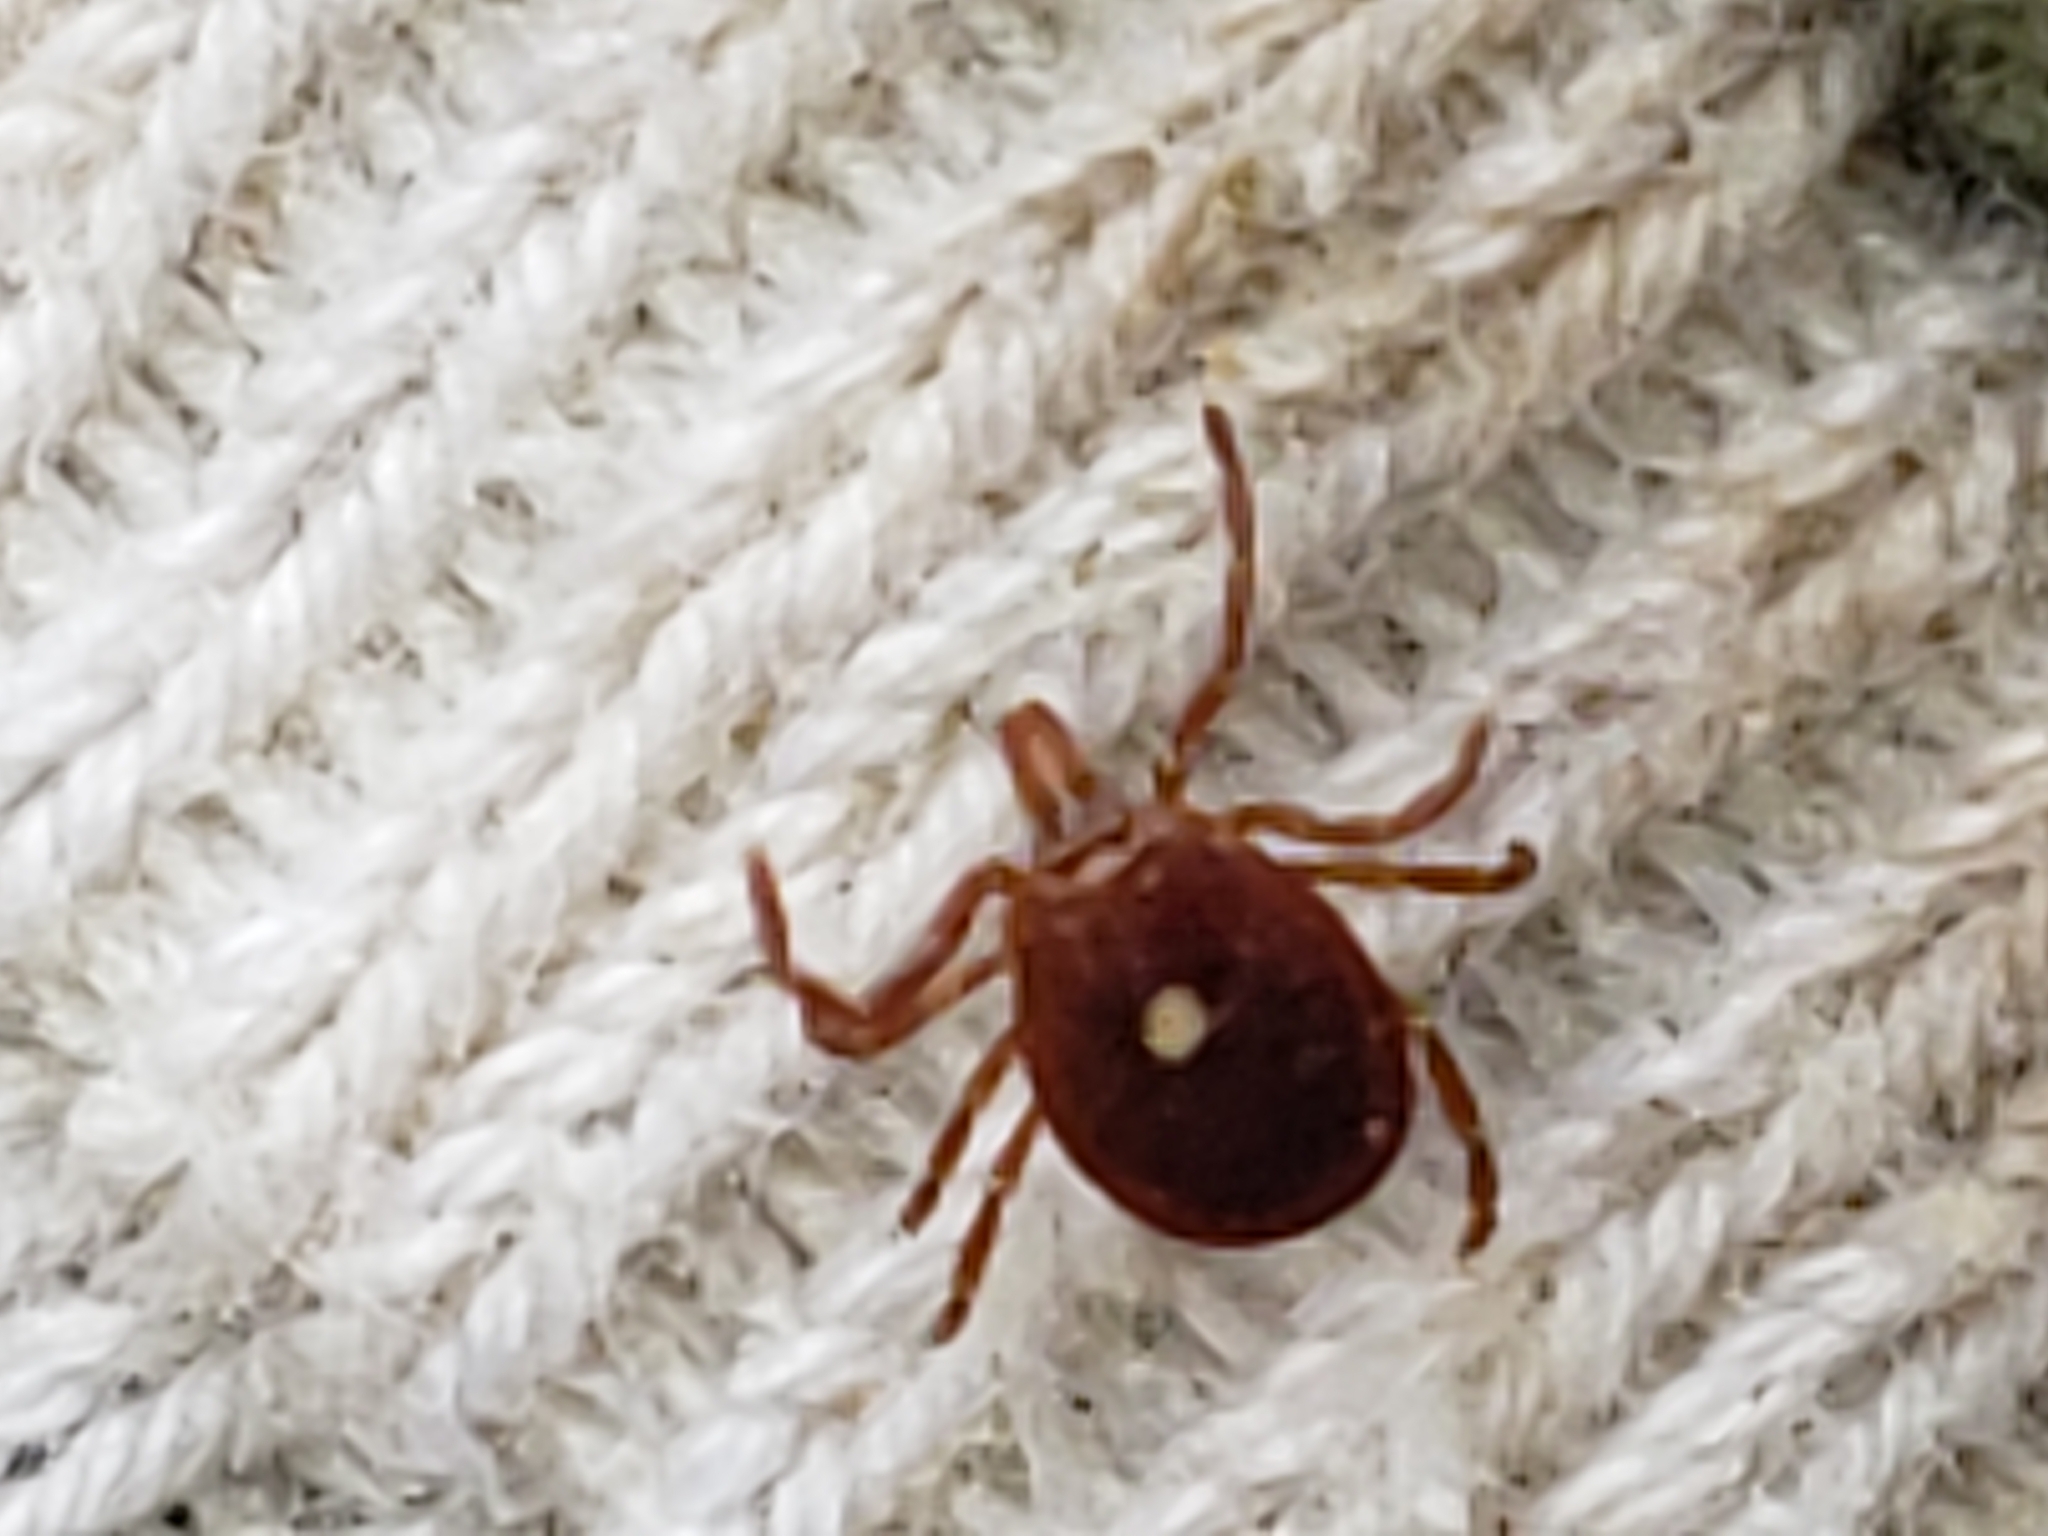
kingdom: Animalia
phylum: Arthropoda
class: Arachnida
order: Ixodida
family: Ixodidae
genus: Amblyomma
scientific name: Amblyomma americanum
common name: Lone star tick
